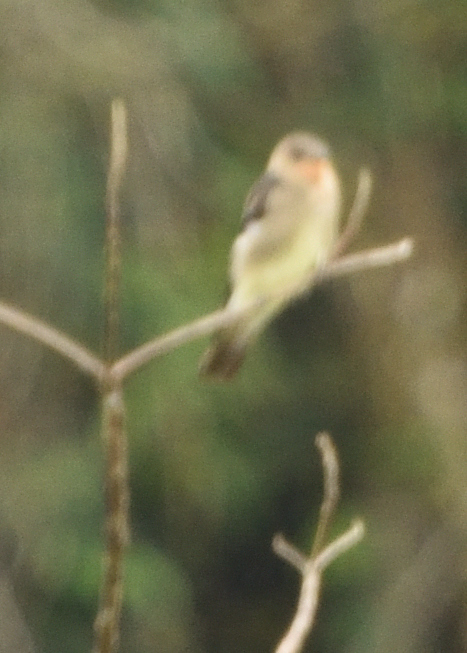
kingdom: Animalia
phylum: Chordata
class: Aves
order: Passeriformes
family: Hirundinidae
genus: Stelgidopteryx
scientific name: Stelgidopteryx ruficollis
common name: Southern rough-winged swallow
